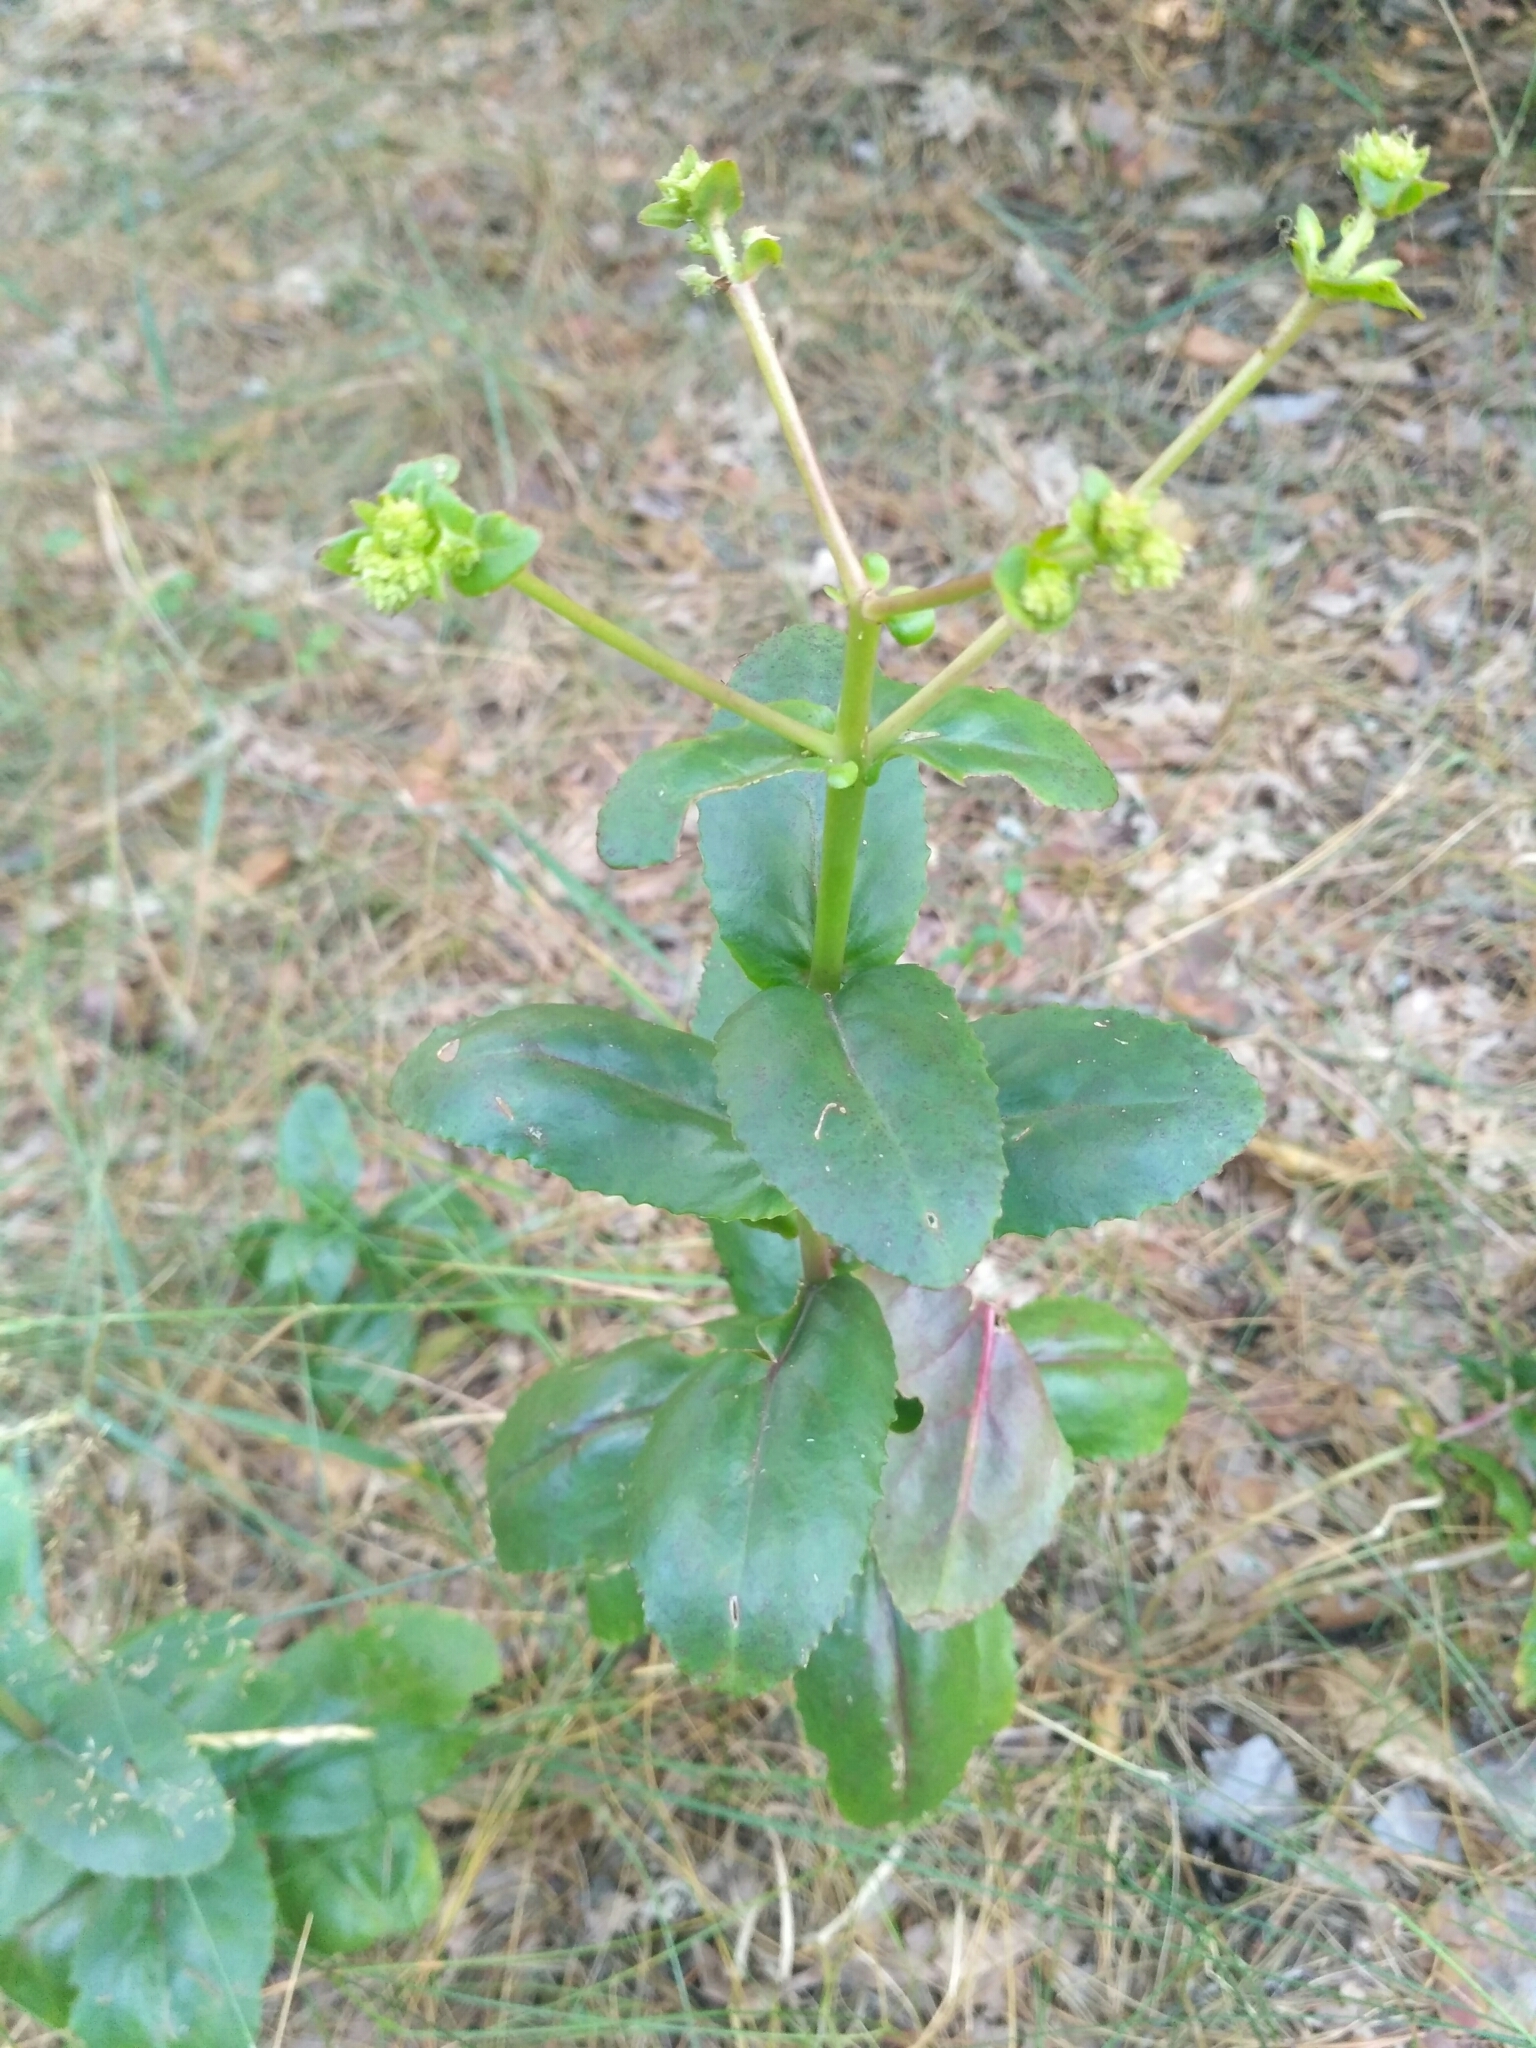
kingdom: Plantae
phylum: Tracheophyta
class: Magnoliopsida
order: Saxifragales
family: Crassulaceae
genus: Hylotelephium
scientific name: Hylotelephium maximum
